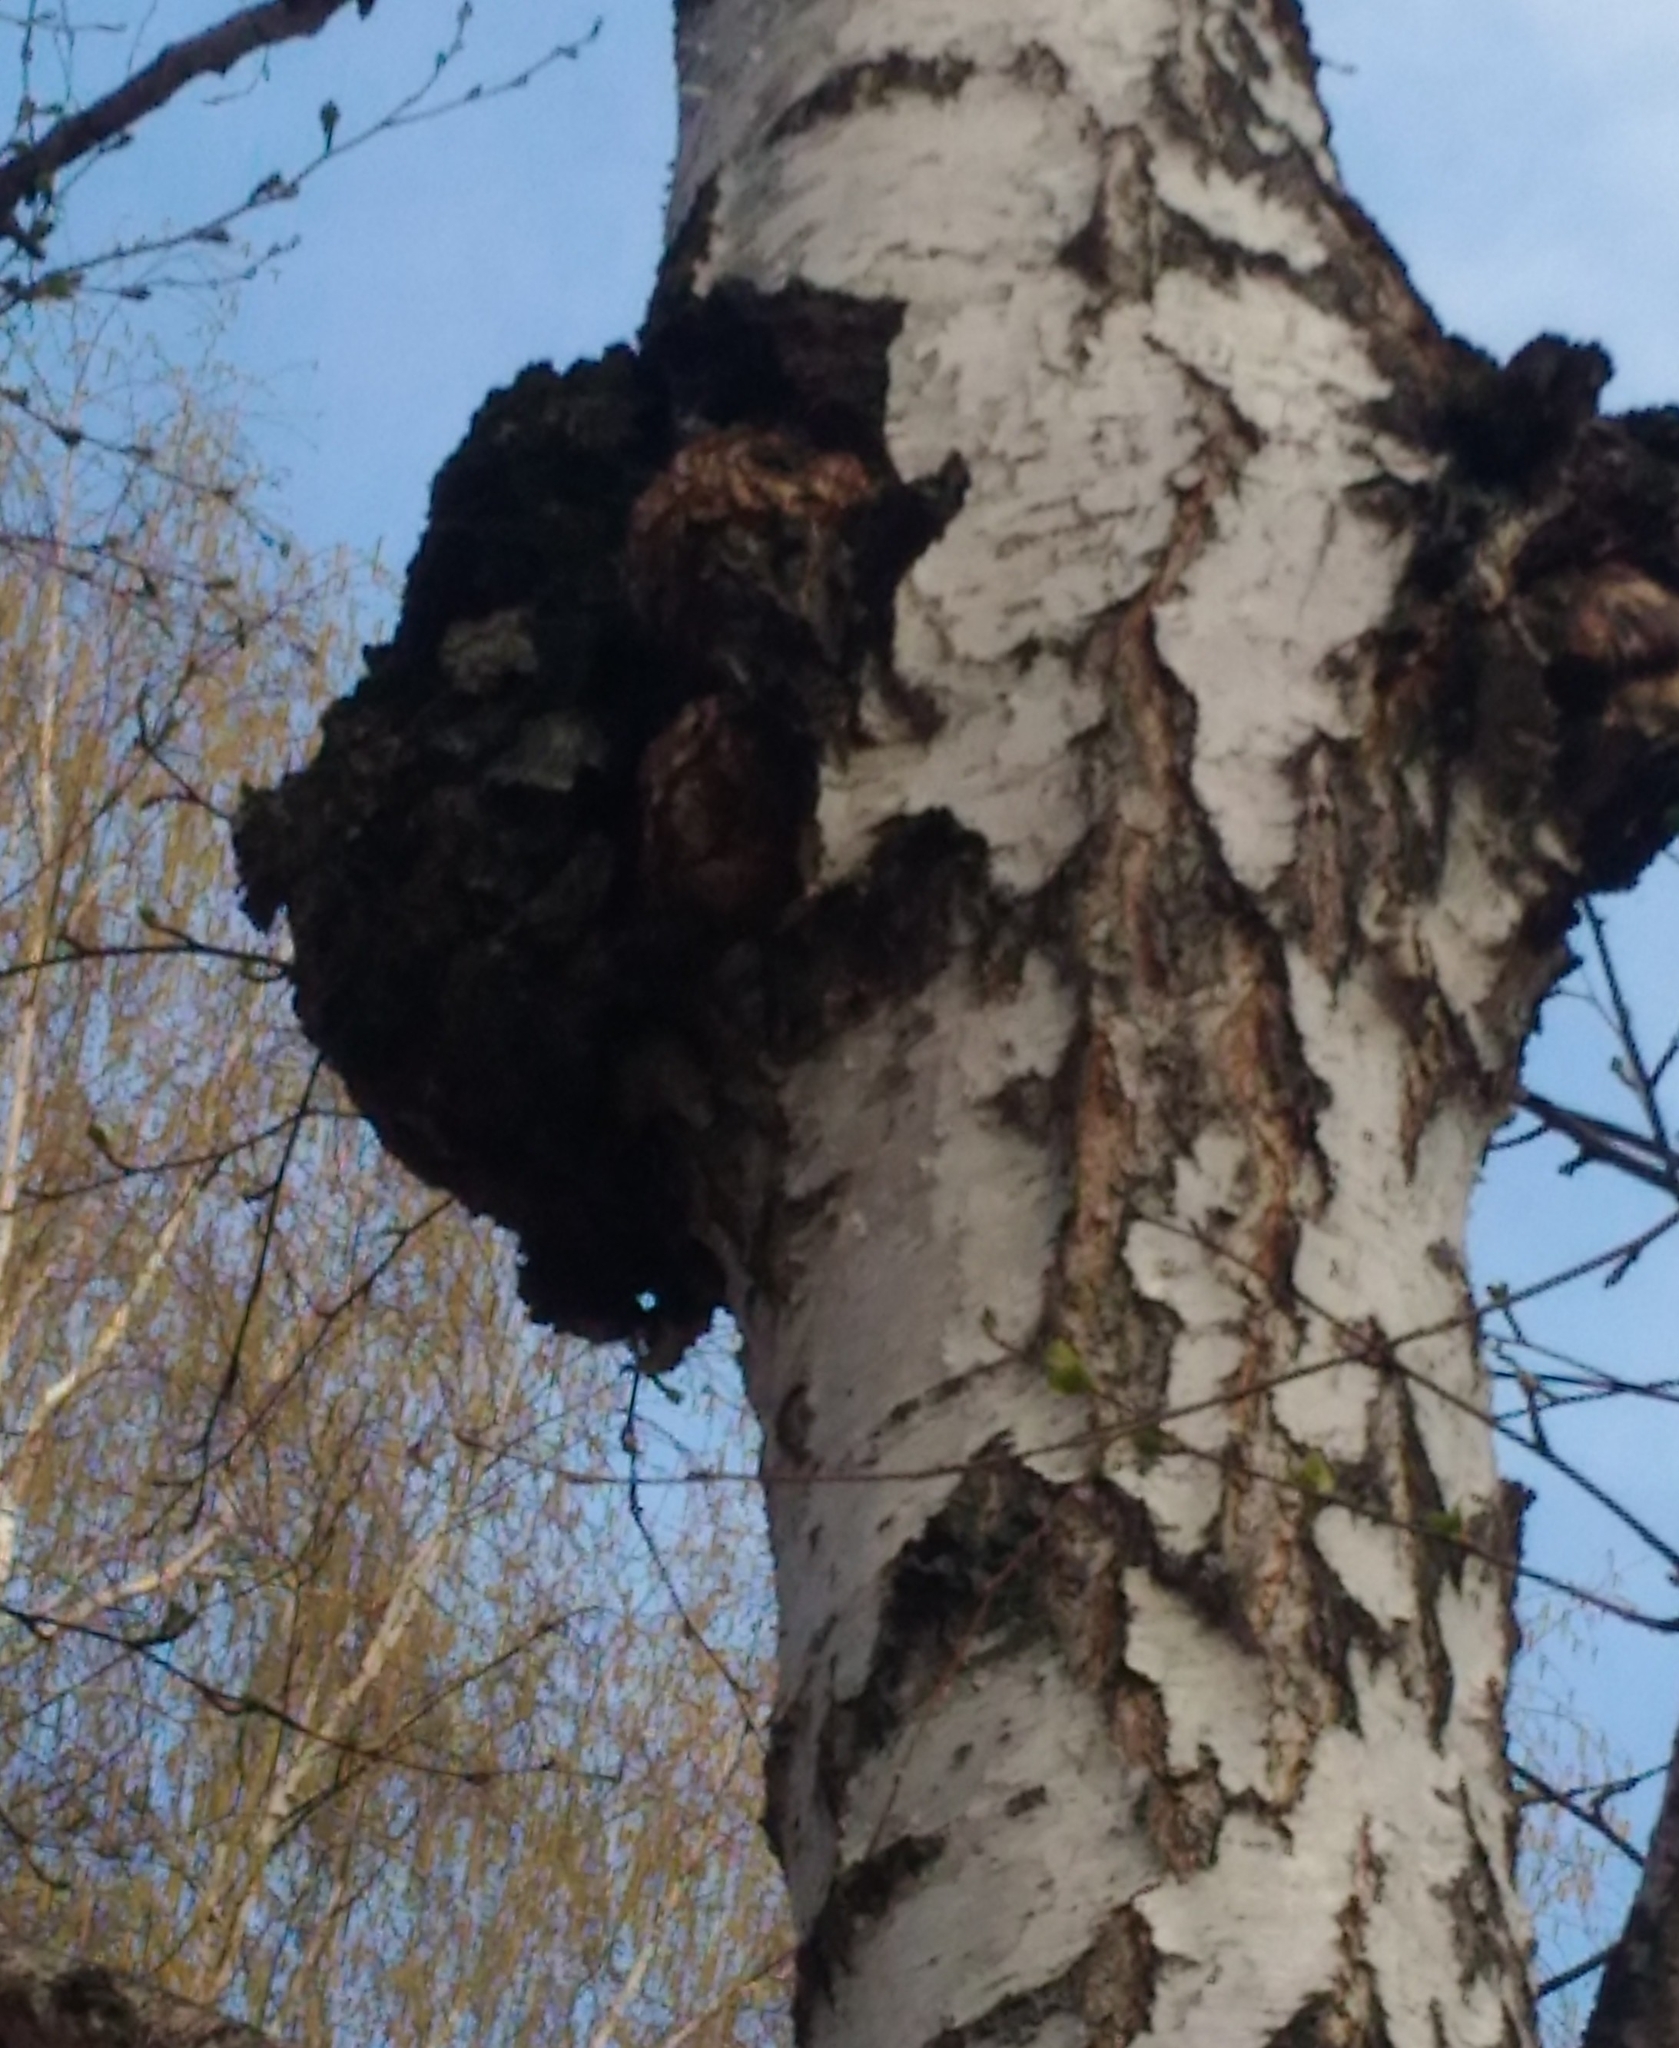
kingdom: Fungi
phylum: Basidiomycota
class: Agaricomycetes
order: Hymenochaetales
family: Hymenochaetaceae
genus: Inonotus
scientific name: Inonotus obliquus
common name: Chaga
